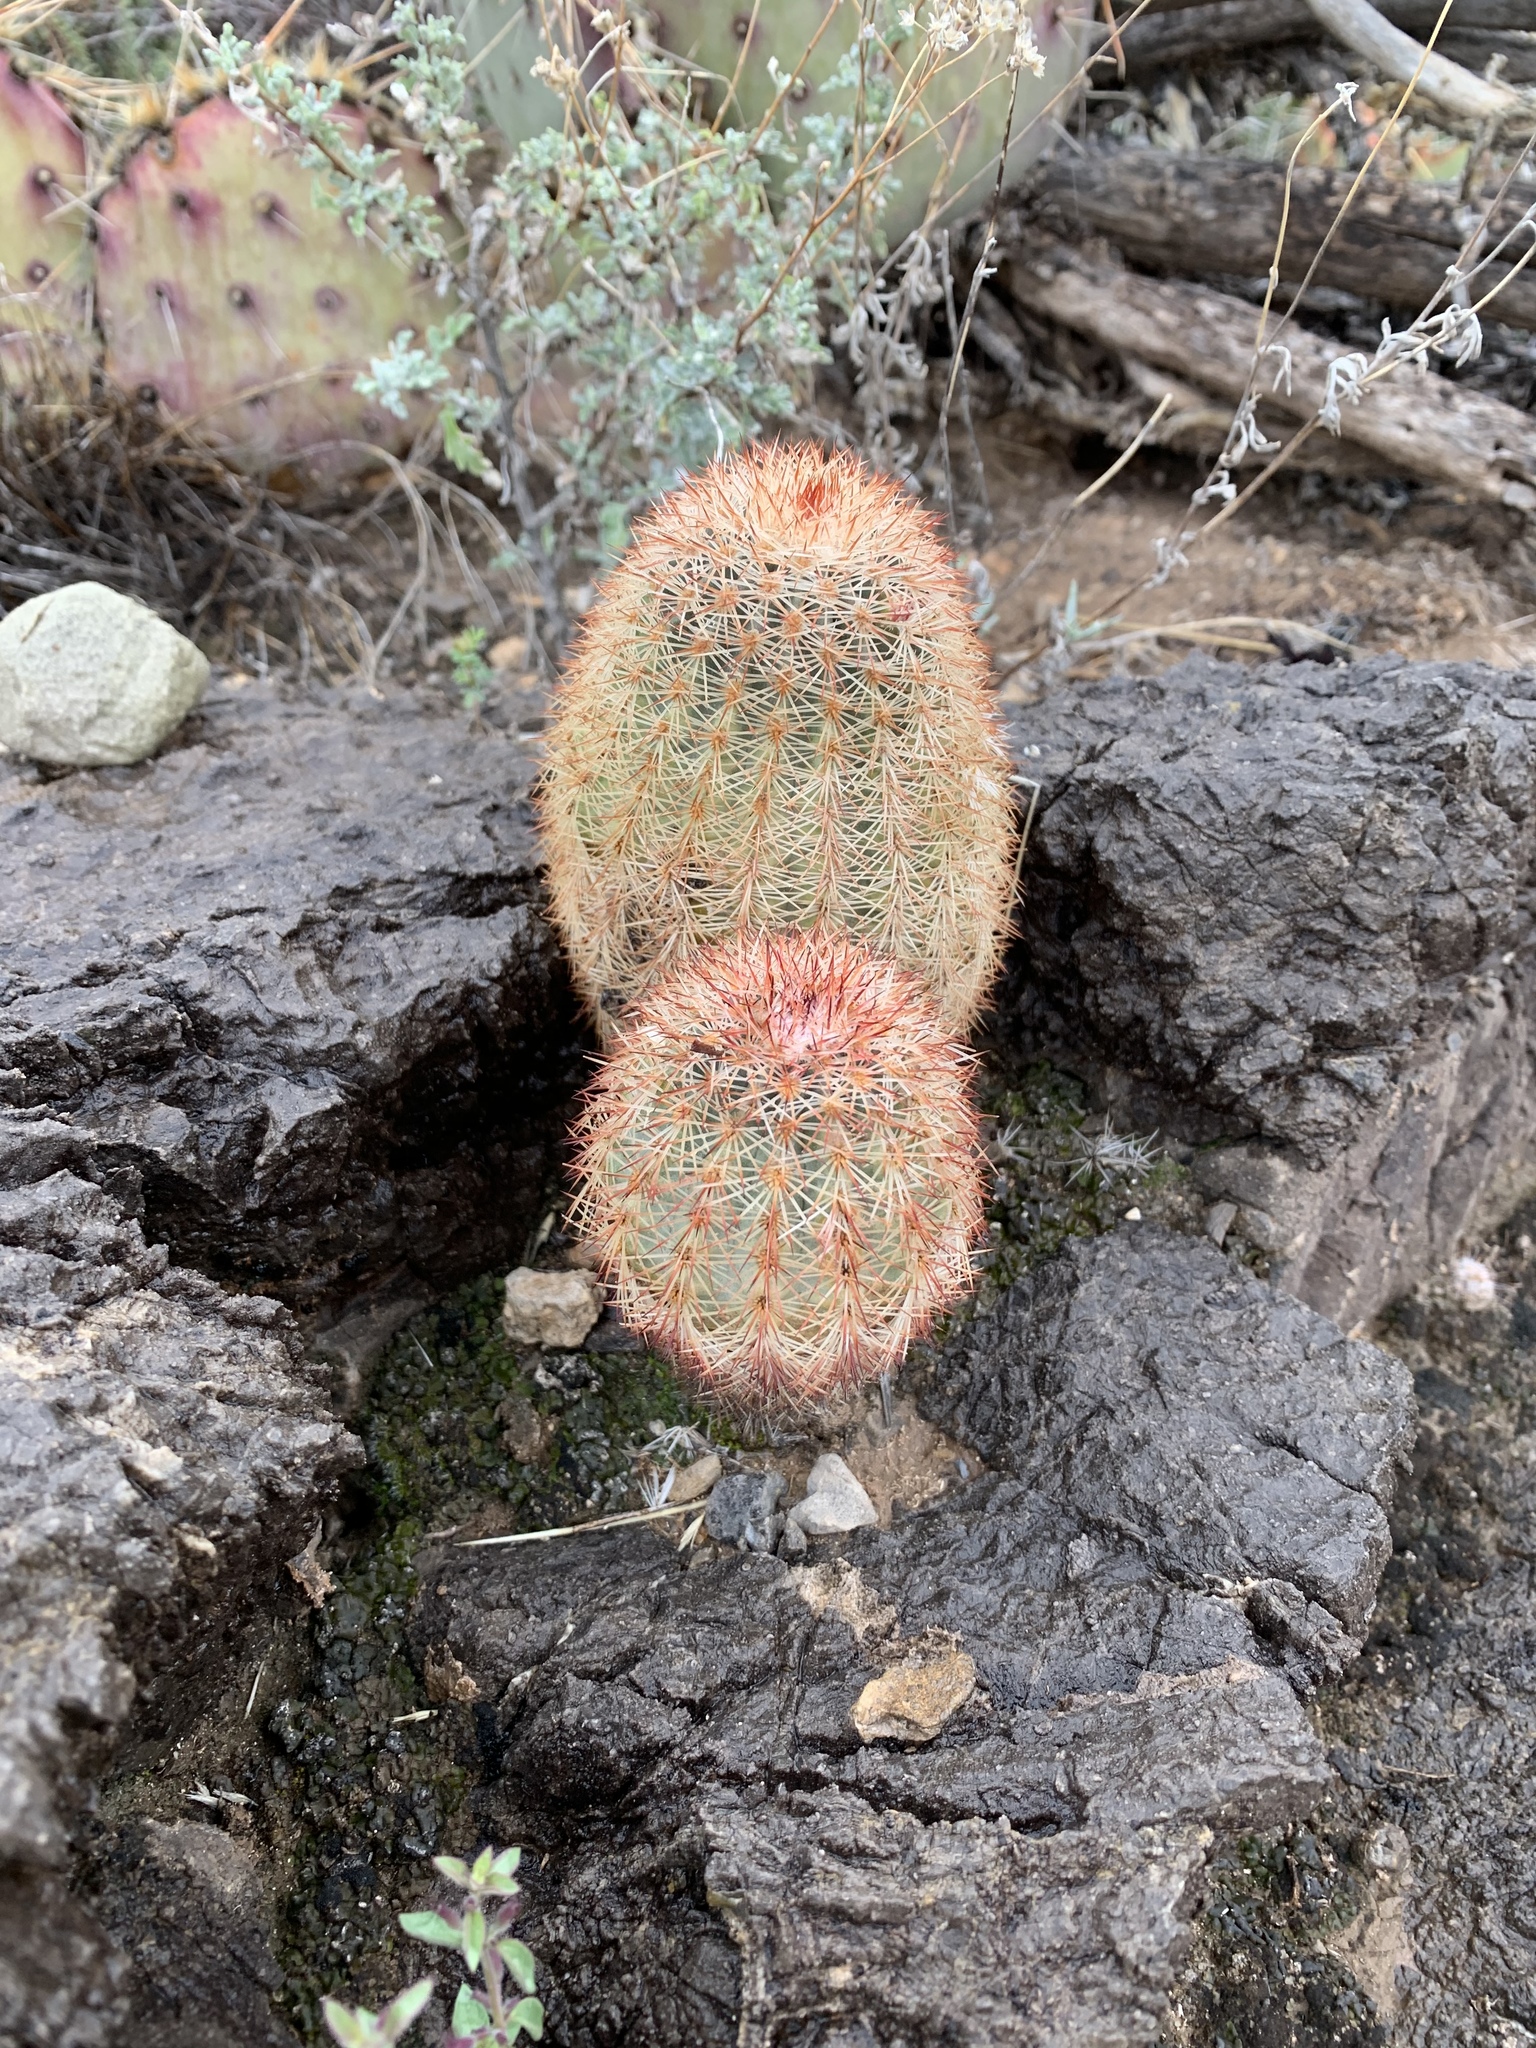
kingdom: Plantae
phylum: Tracheophyta
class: Magnoliopsida
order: Caryophyllales
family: Cactaceae
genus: Echinocereus
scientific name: Echinocereus dasyacanthus
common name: Spiny hedgehog cactus
